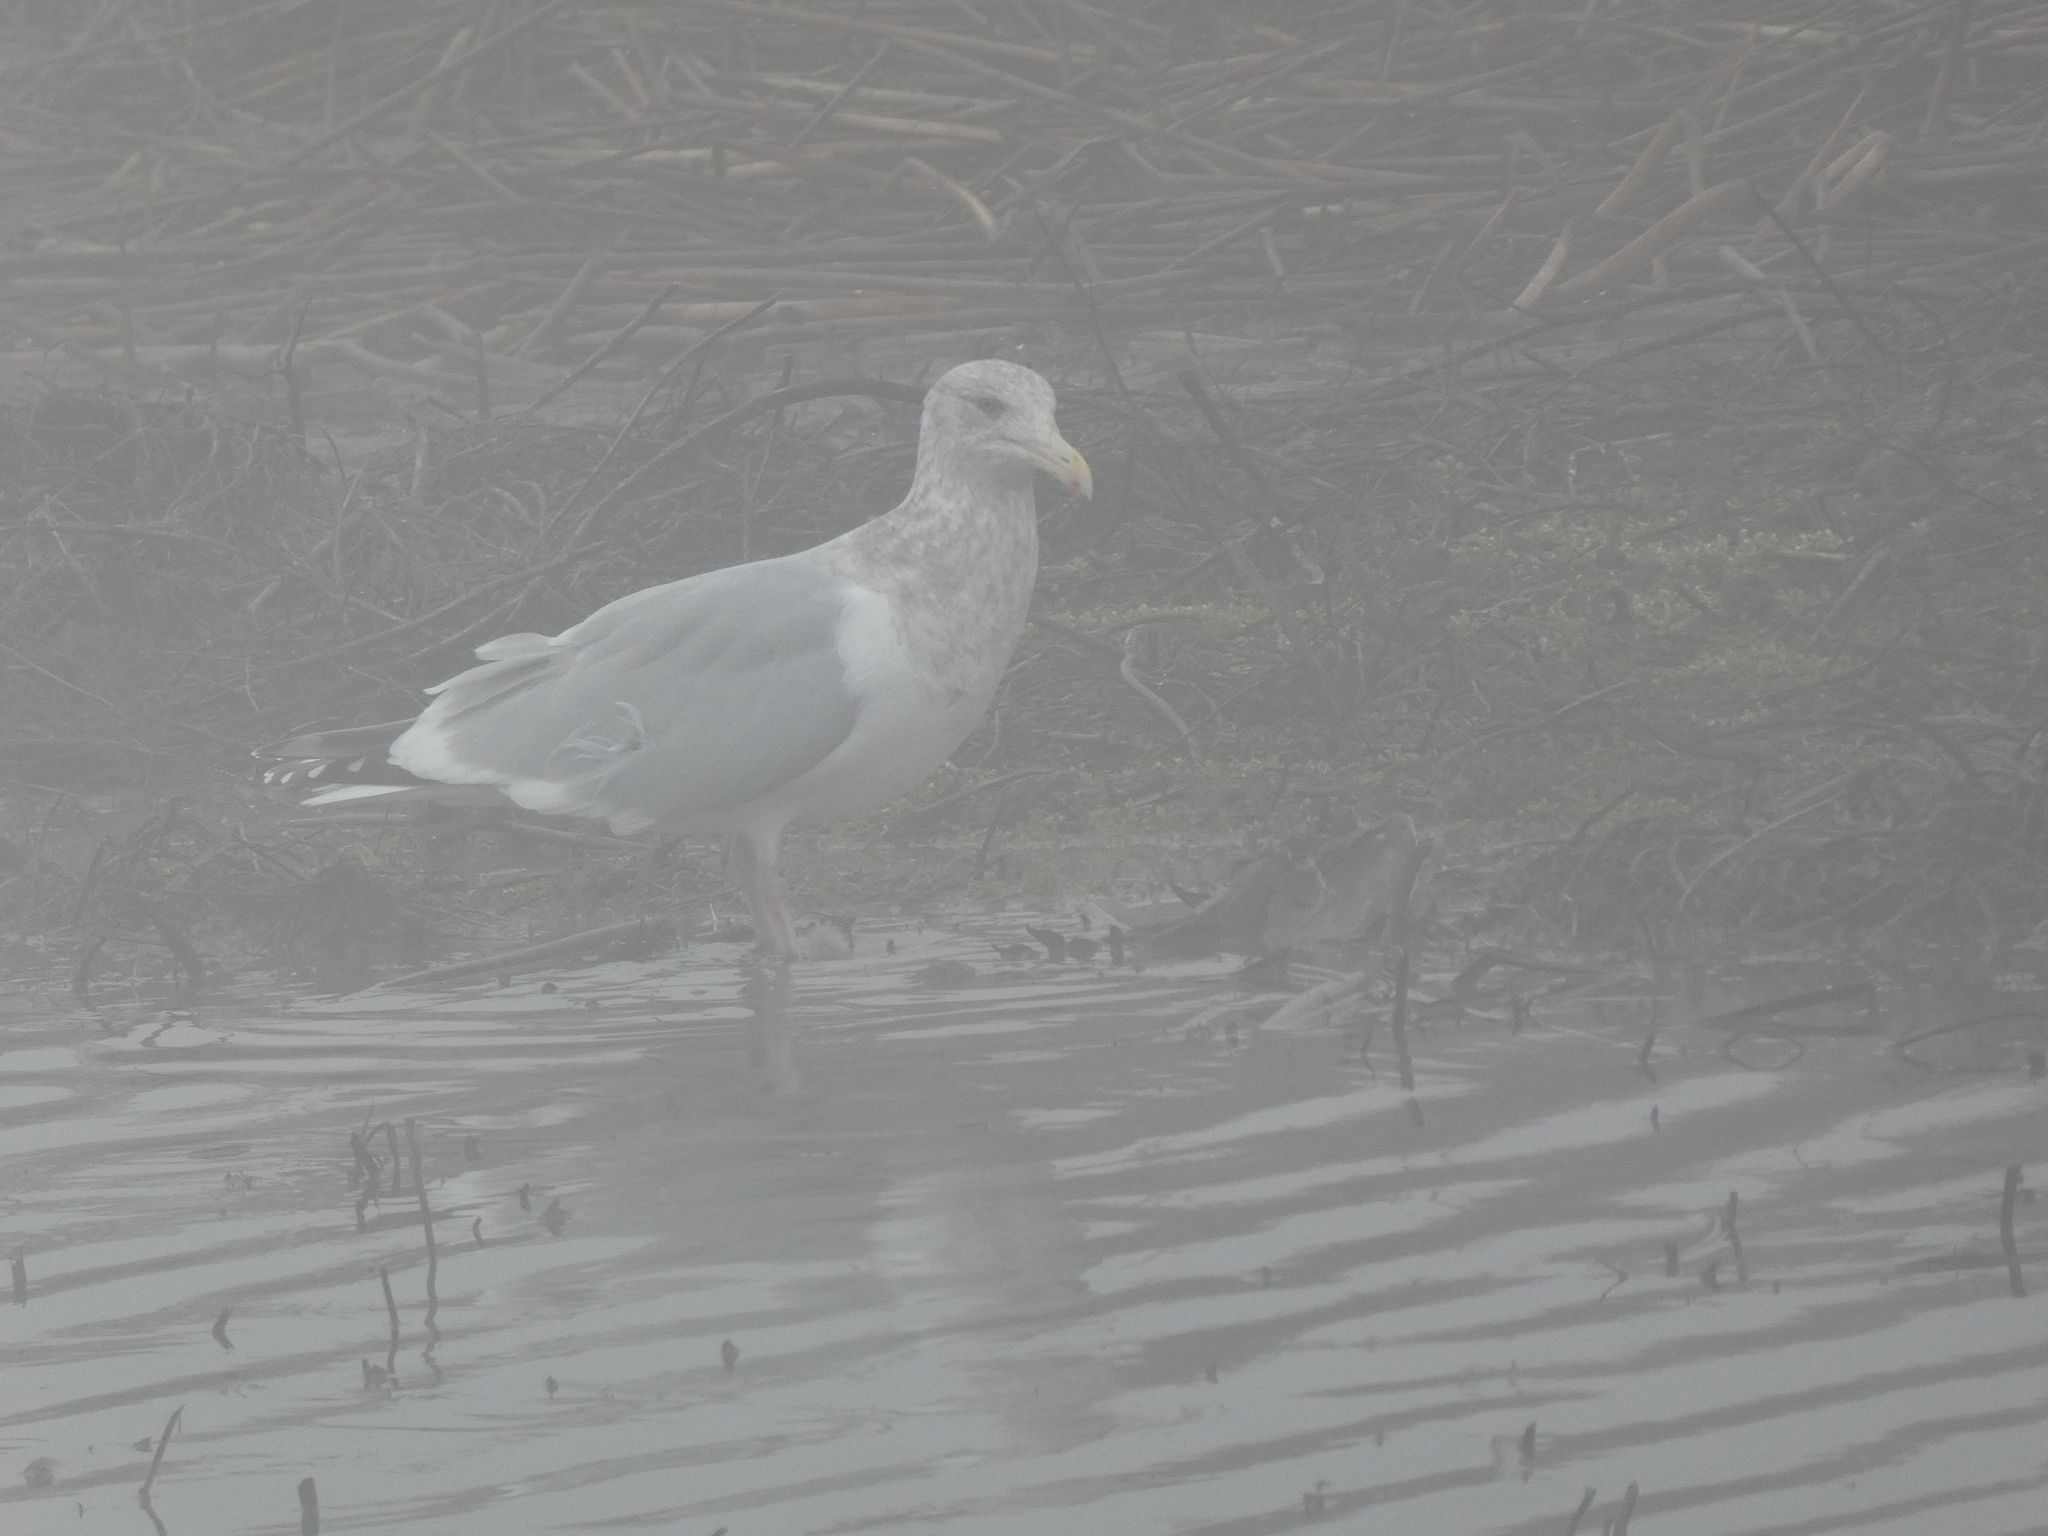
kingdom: Animalia
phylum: Chordata
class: Aves
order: Charadriiformes
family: Laridae
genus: Larus
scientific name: Larus argentatus
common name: Herring gull
